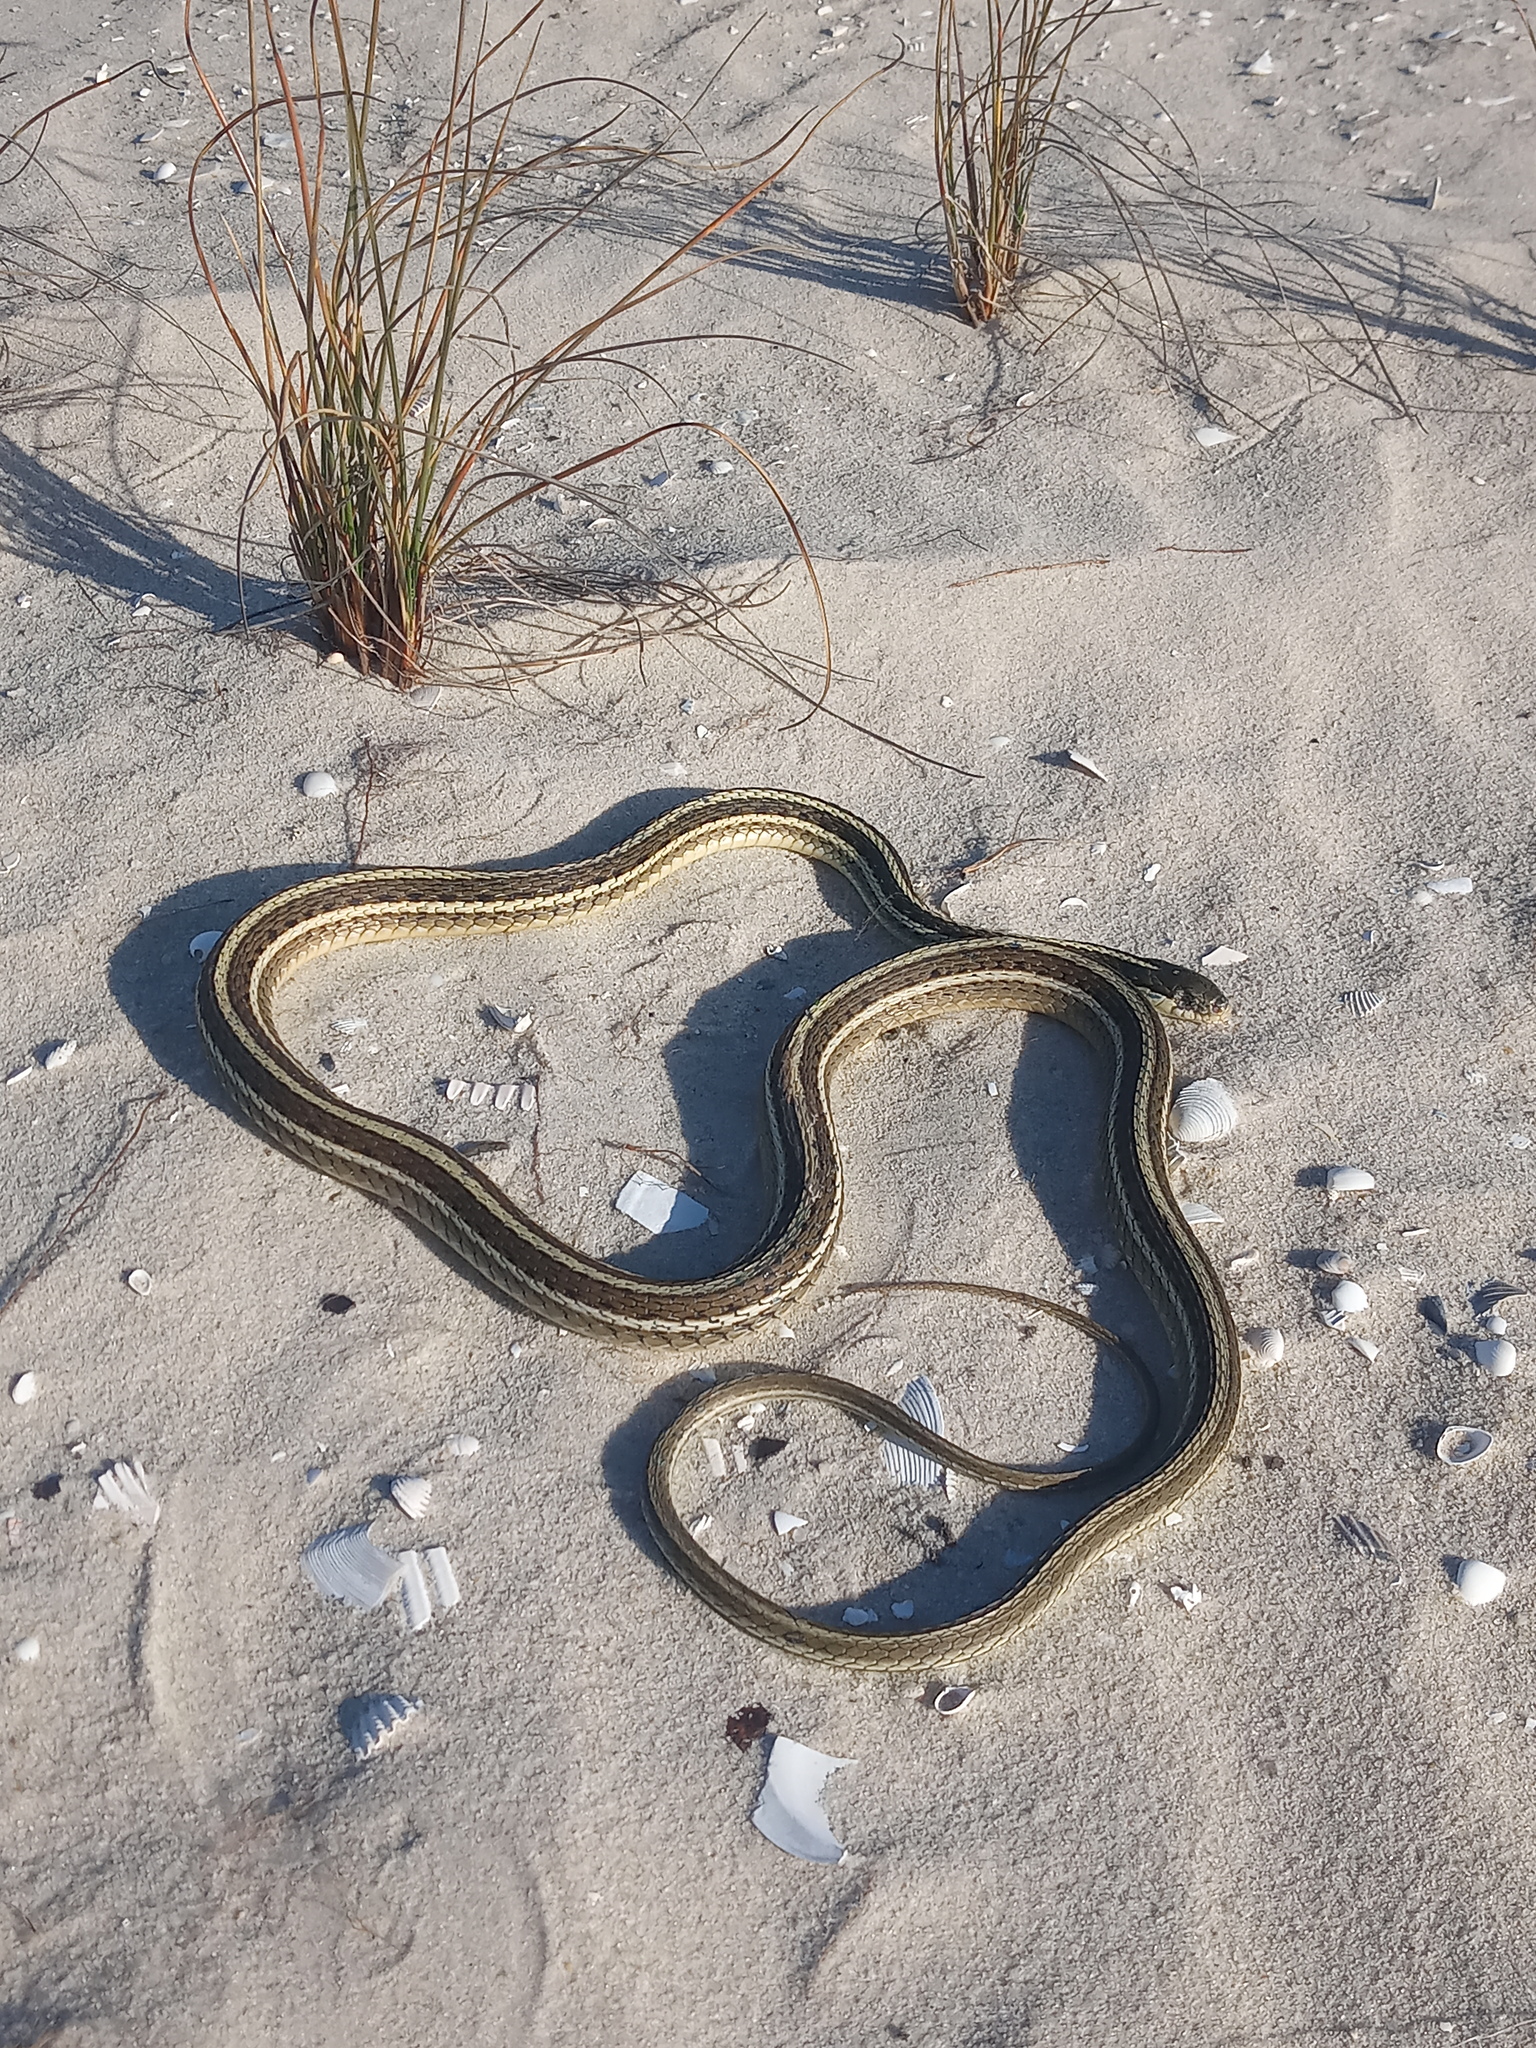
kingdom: Animalia
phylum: Chordata
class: Squamata
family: Colubridae
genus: Thamnophis
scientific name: Thamnophis saurita
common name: Eastern ribbonsnake
